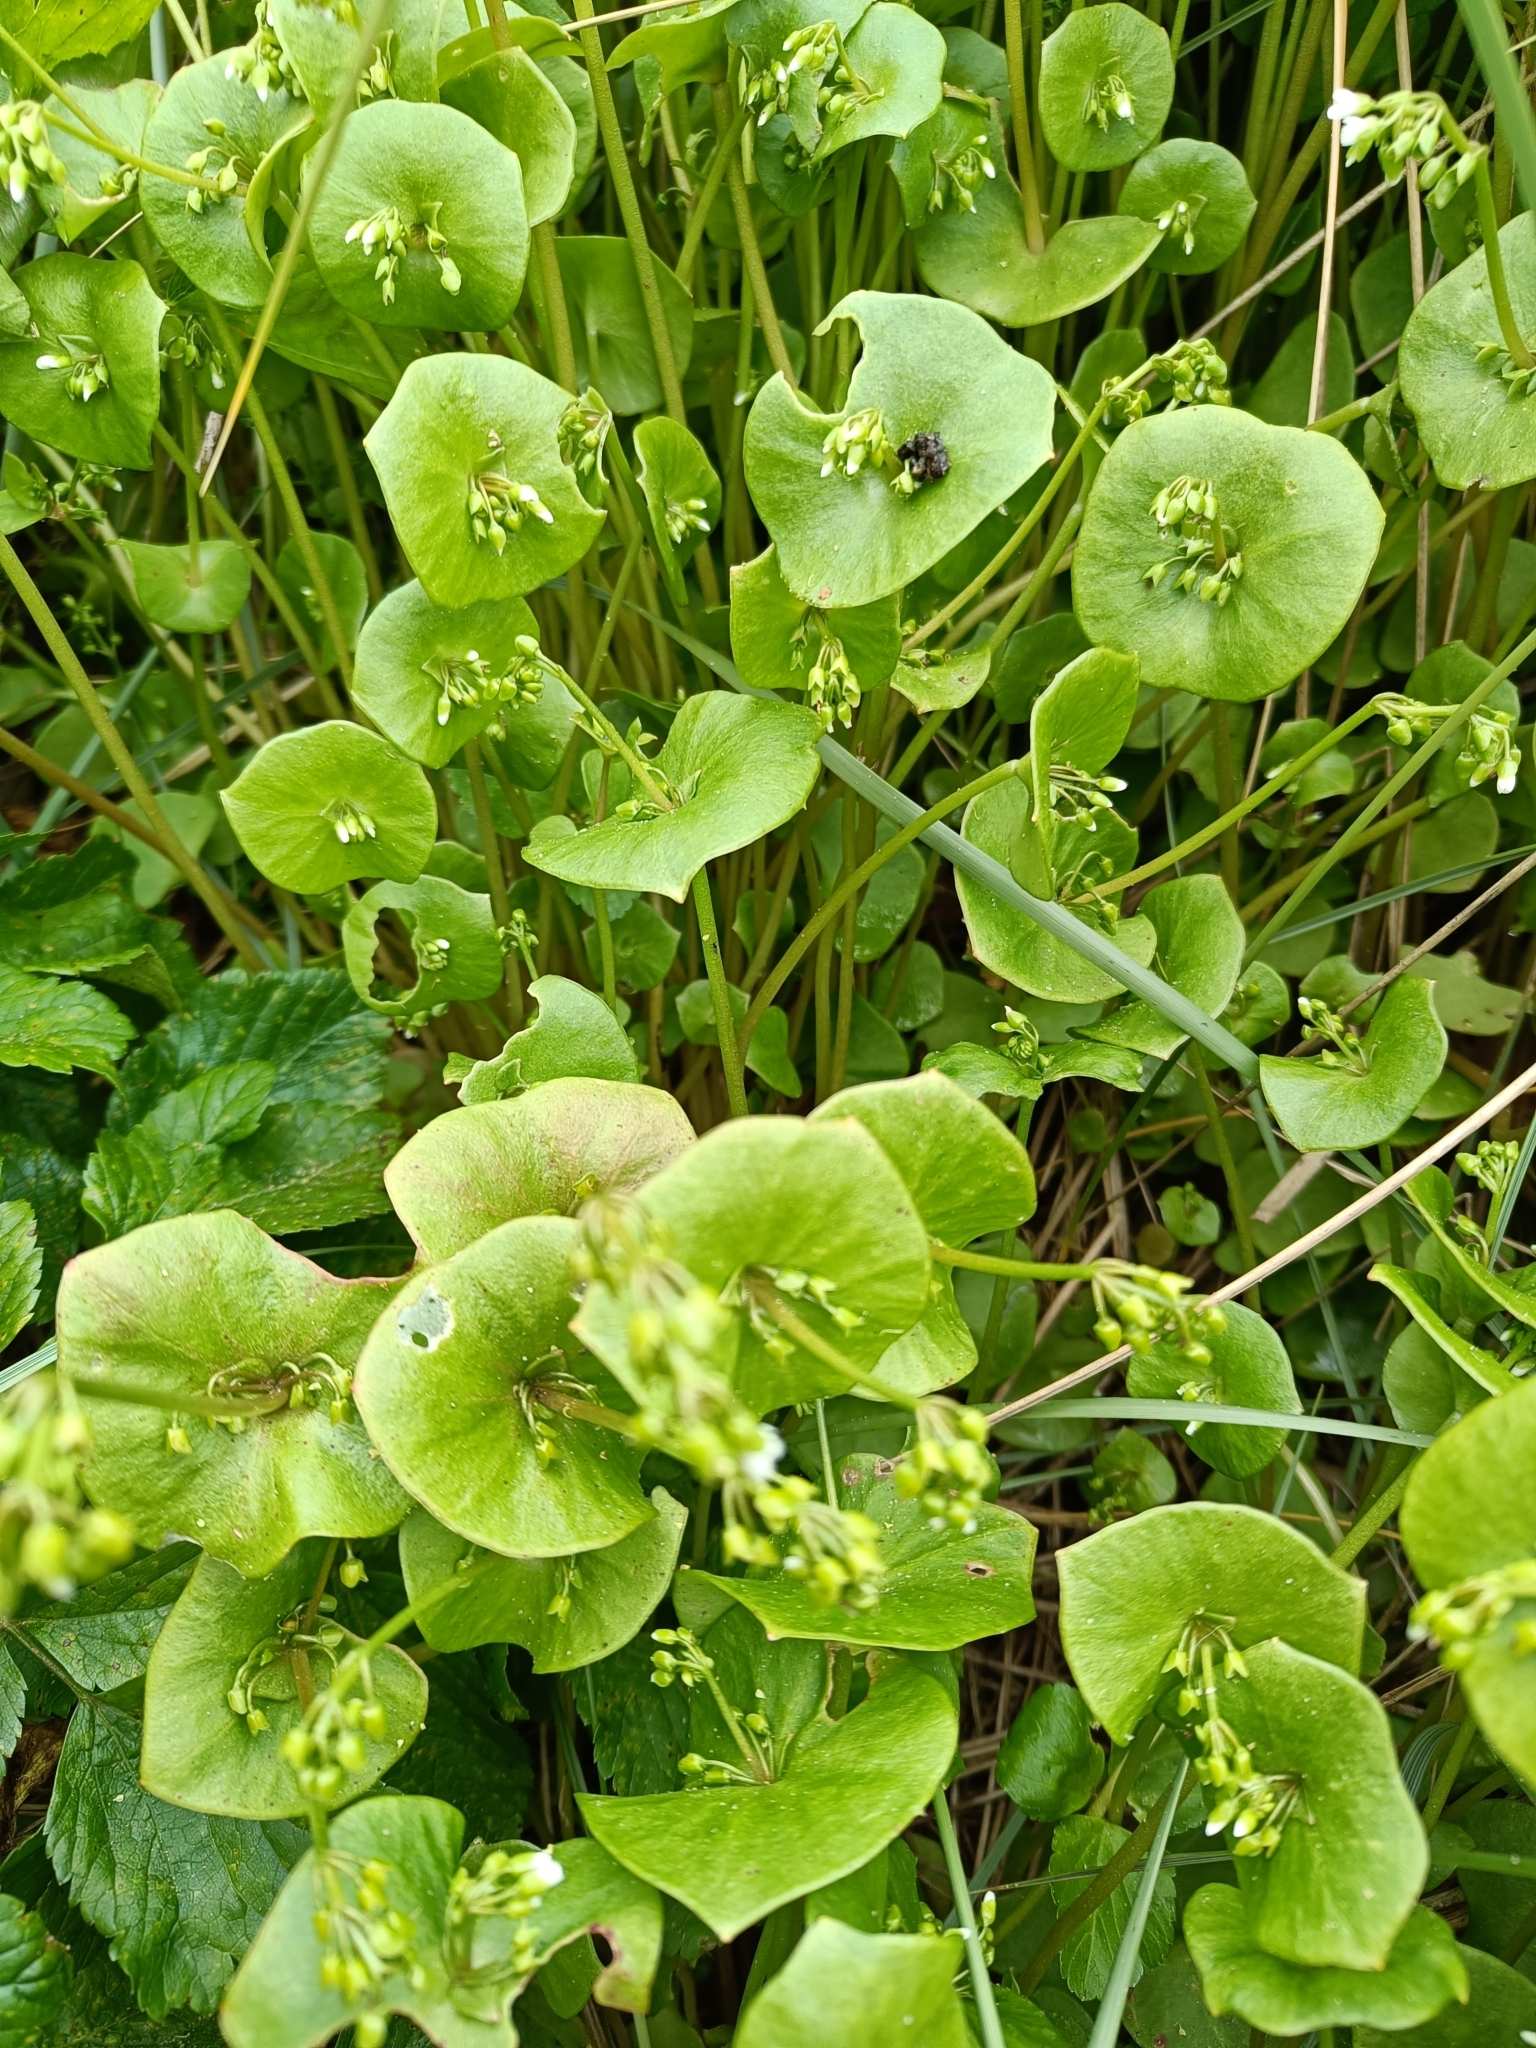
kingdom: Plantae
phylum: Tracheophyta
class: Magnoliopsida
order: Caryophyllales
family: Montiaceae
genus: Claytonia
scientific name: Claytonia perfoliata
